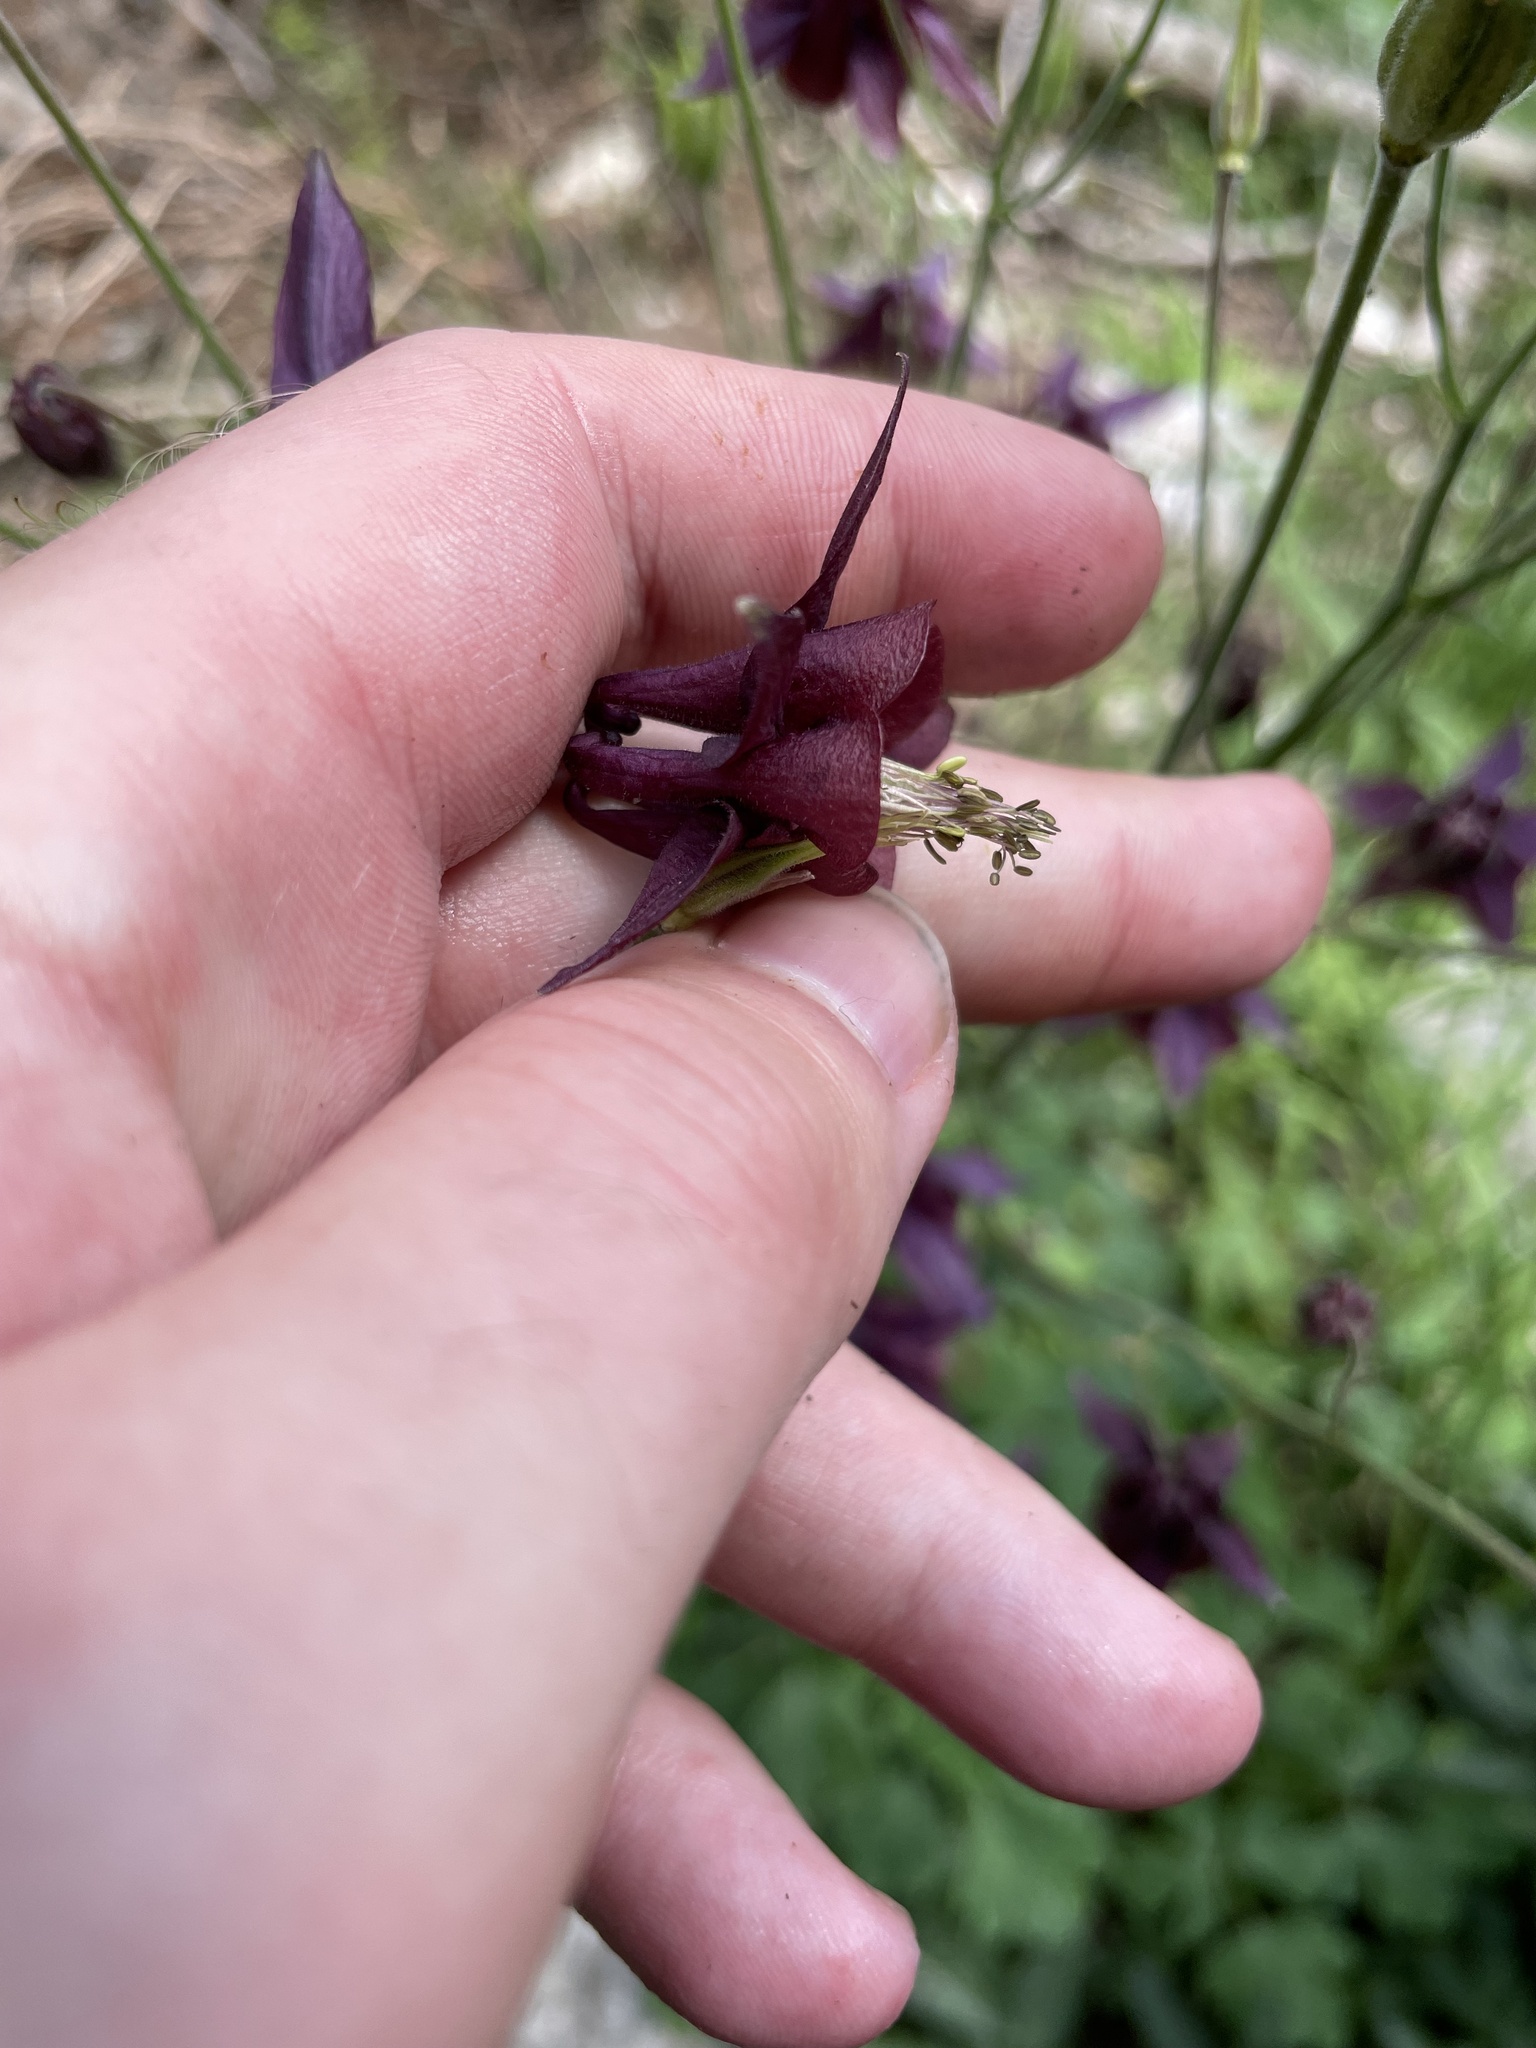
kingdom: Plantae
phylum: Tracheophyta
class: Magnoliopsida
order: Ranunculales
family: Ranunculaceae
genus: Aquilegia
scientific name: Aquilegia atrata
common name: Dark columbine
